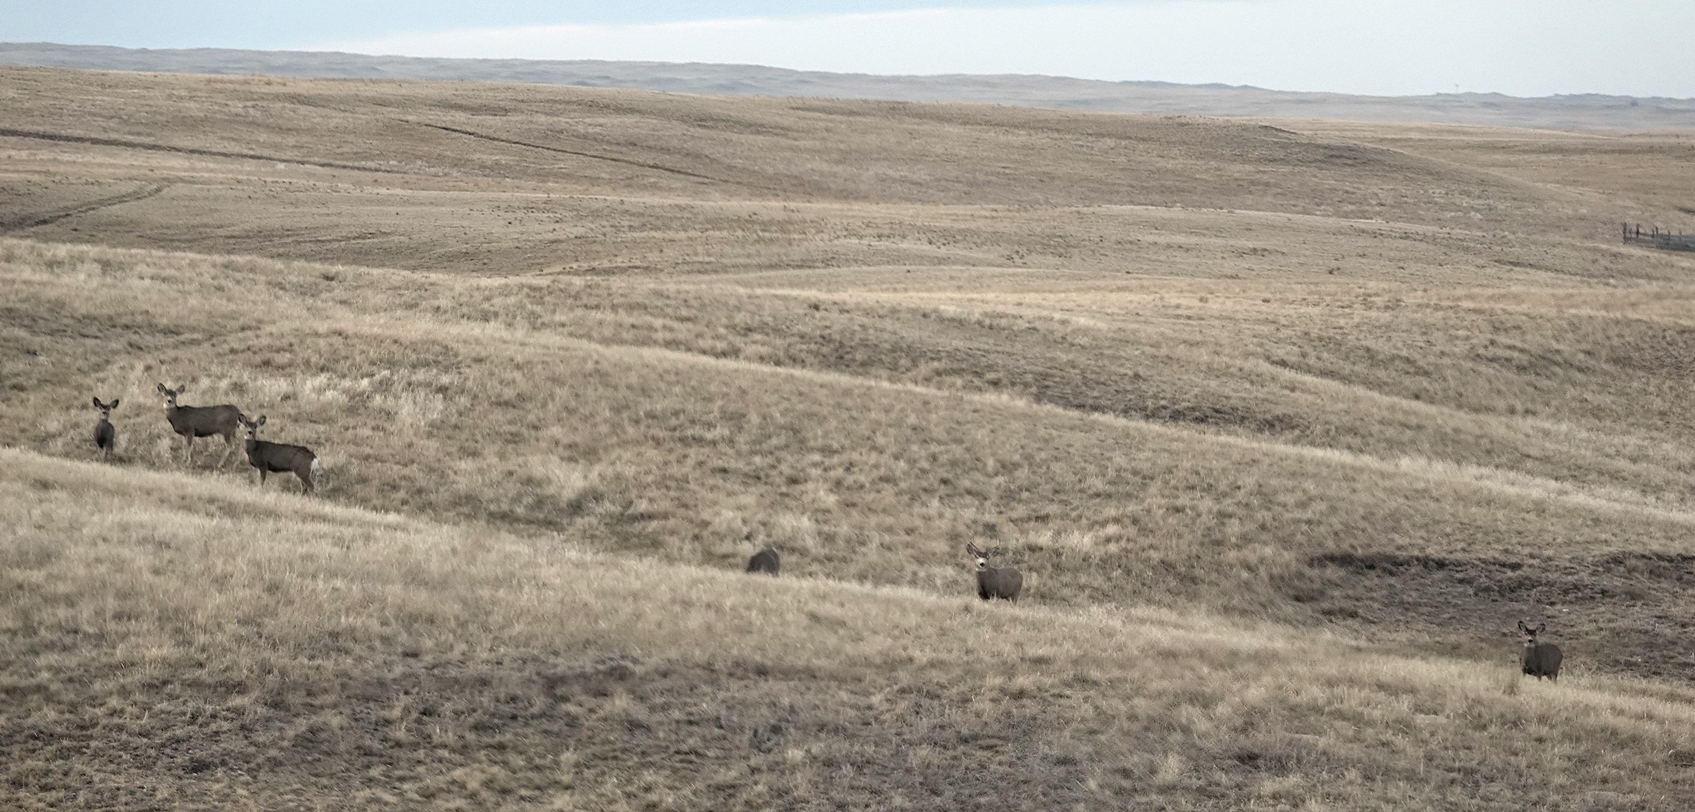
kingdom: Animalia
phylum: Chordata
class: Mammalia
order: Artiodactyla
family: Cervidae
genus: Odocoileus
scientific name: Odocoileus hemionus
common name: Mule deer
